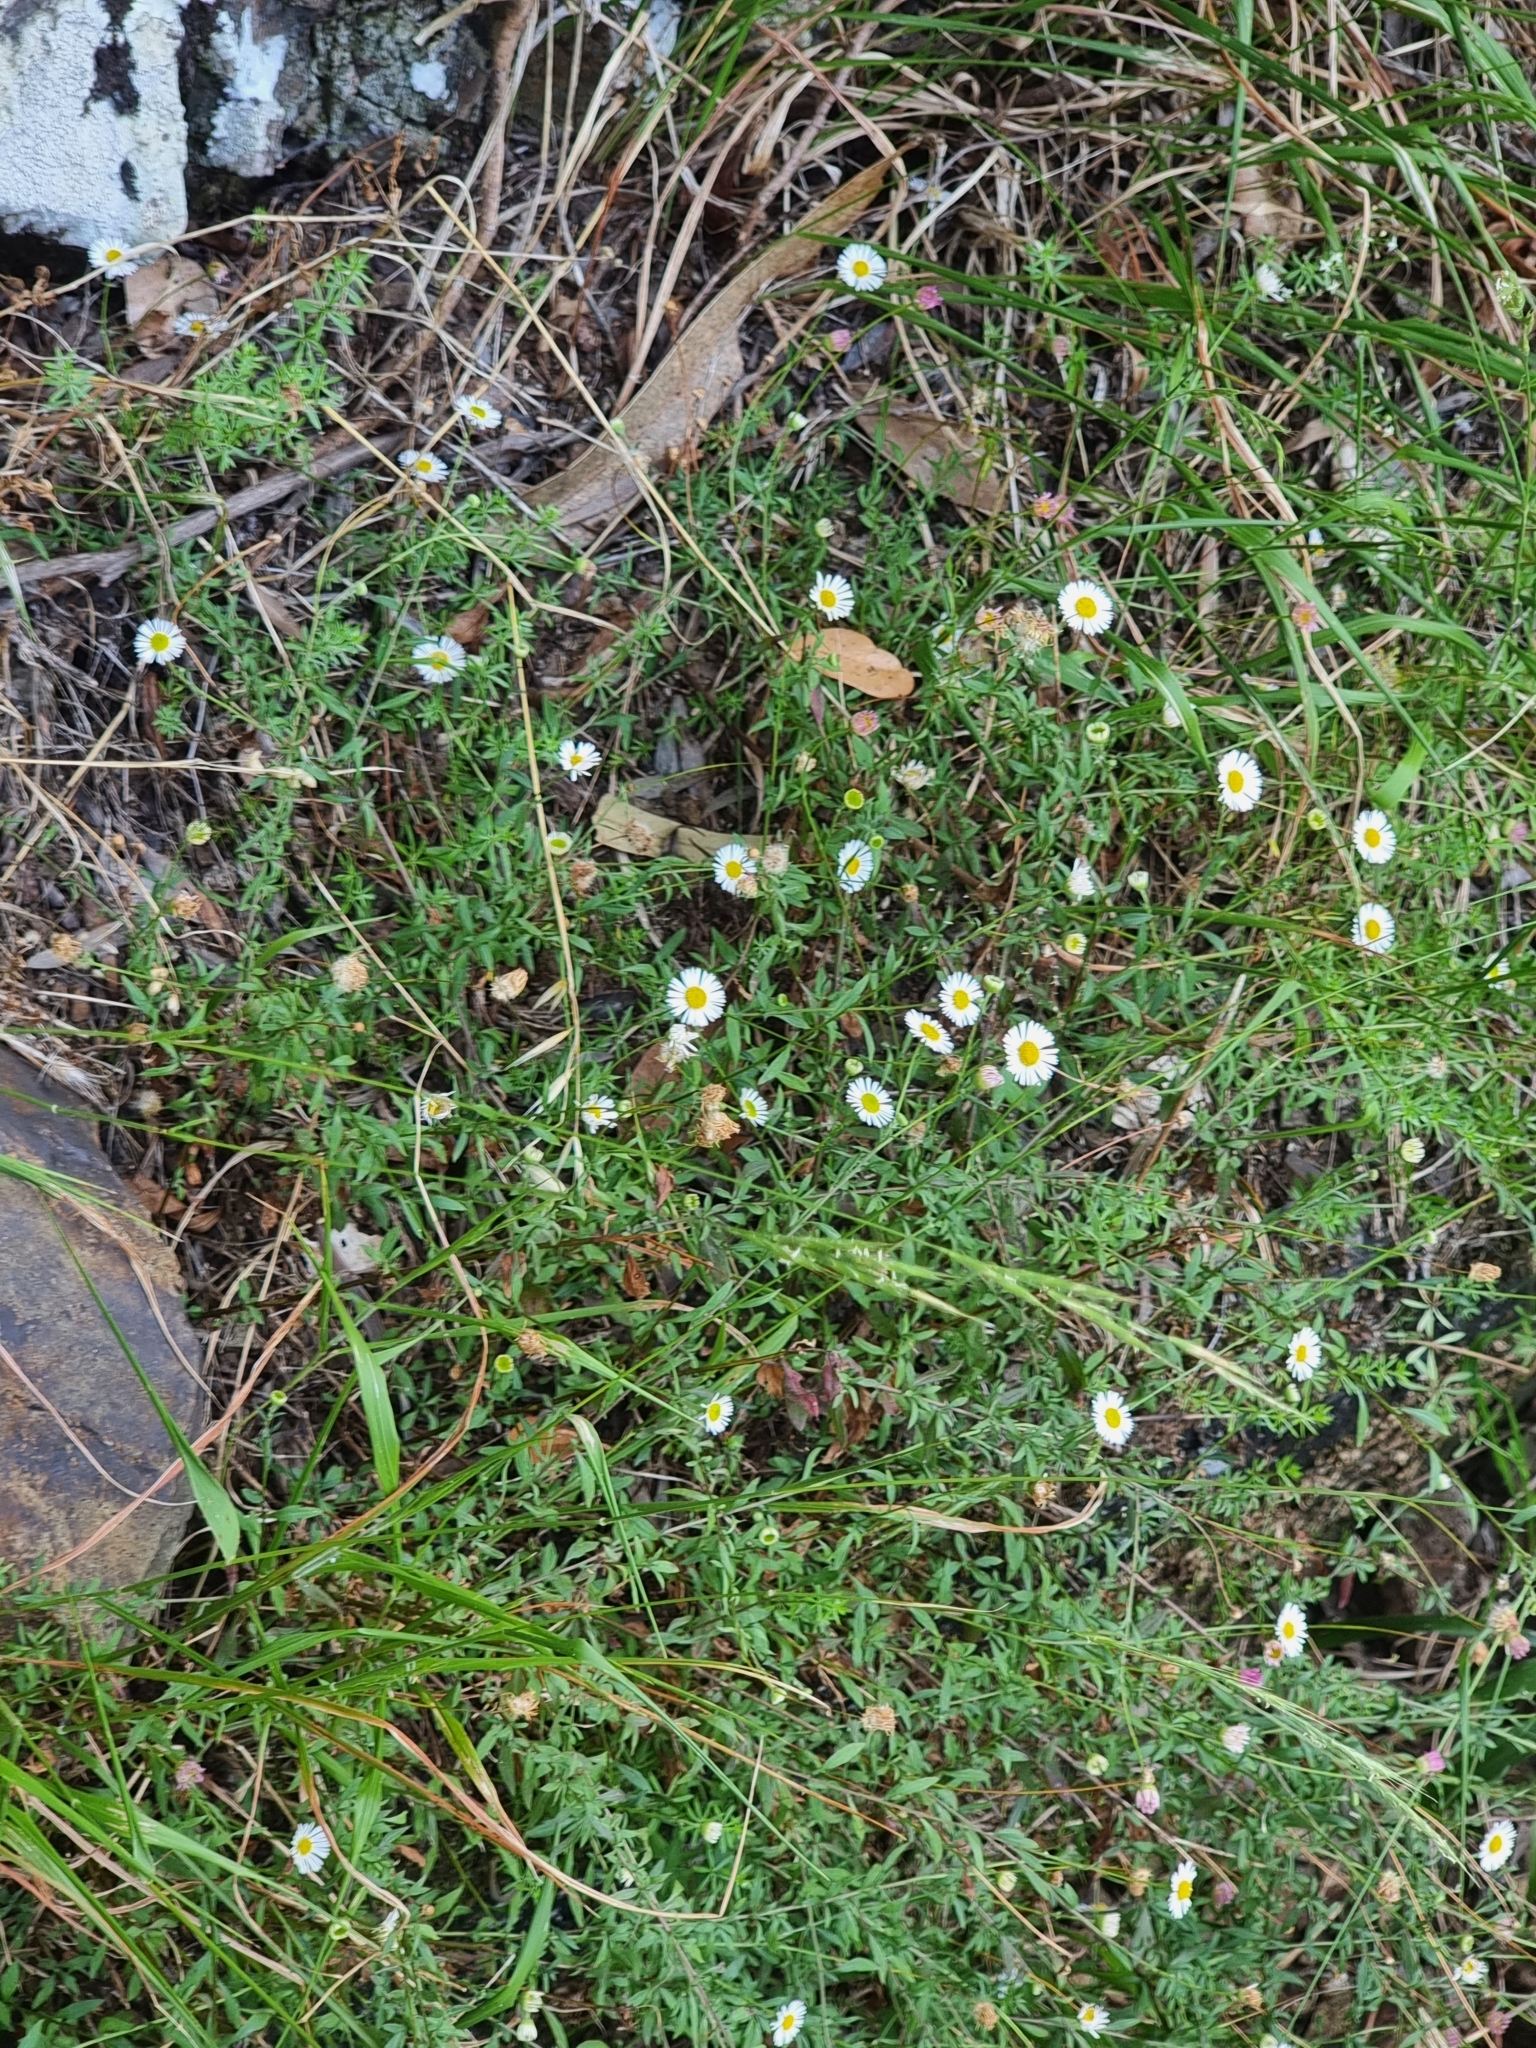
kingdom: Plantae
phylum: Tracheophyta
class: Magnoliopsida
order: Asterales
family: Asteraceae
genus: Erigeron
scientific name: Erigeron karvinskianus
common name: Mexican fleabane
